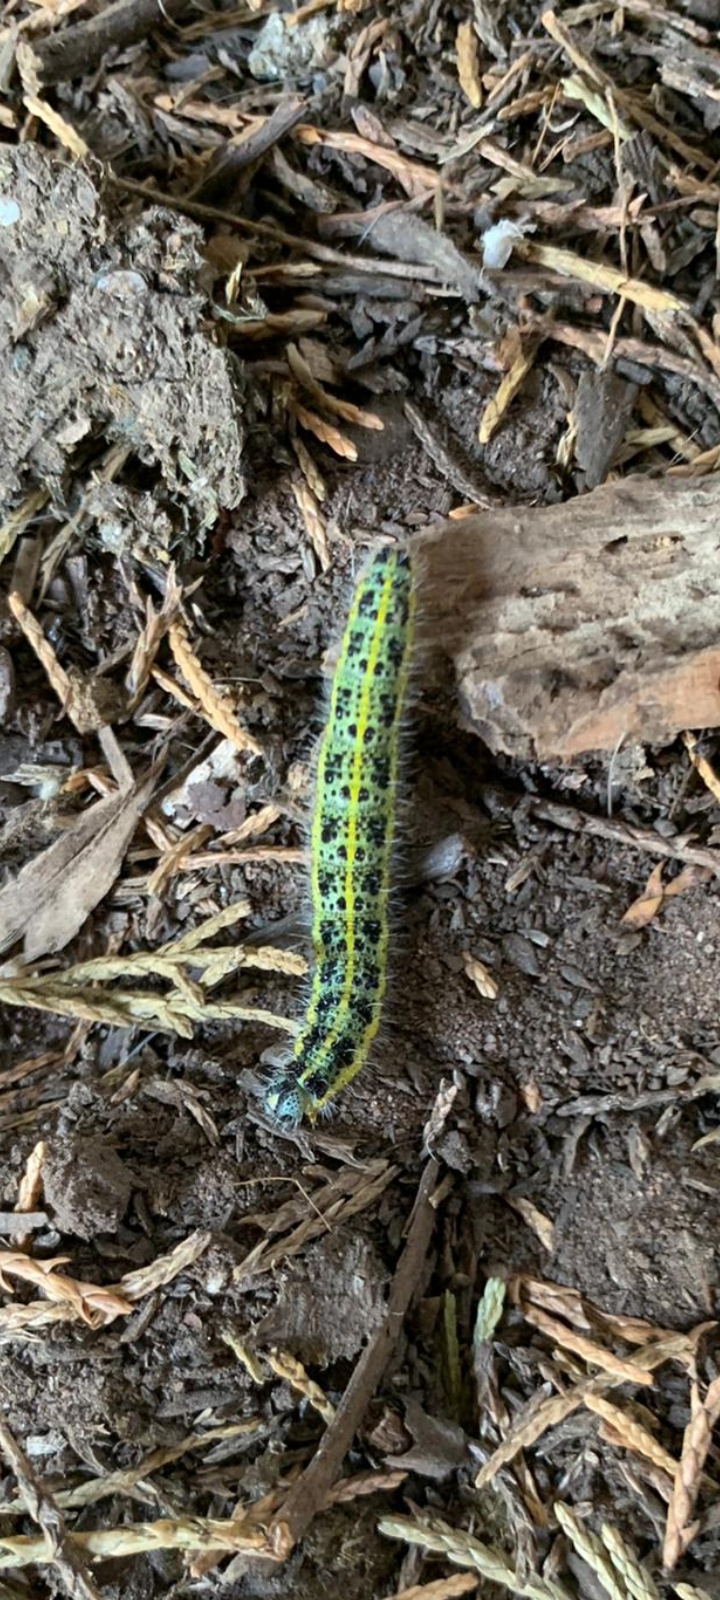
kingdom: Animalia
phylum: Arthropoda
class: Insecta
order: Lepidoptera
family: Pieridae
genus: Pieris
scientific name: Pieris brassicae
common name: Large white
